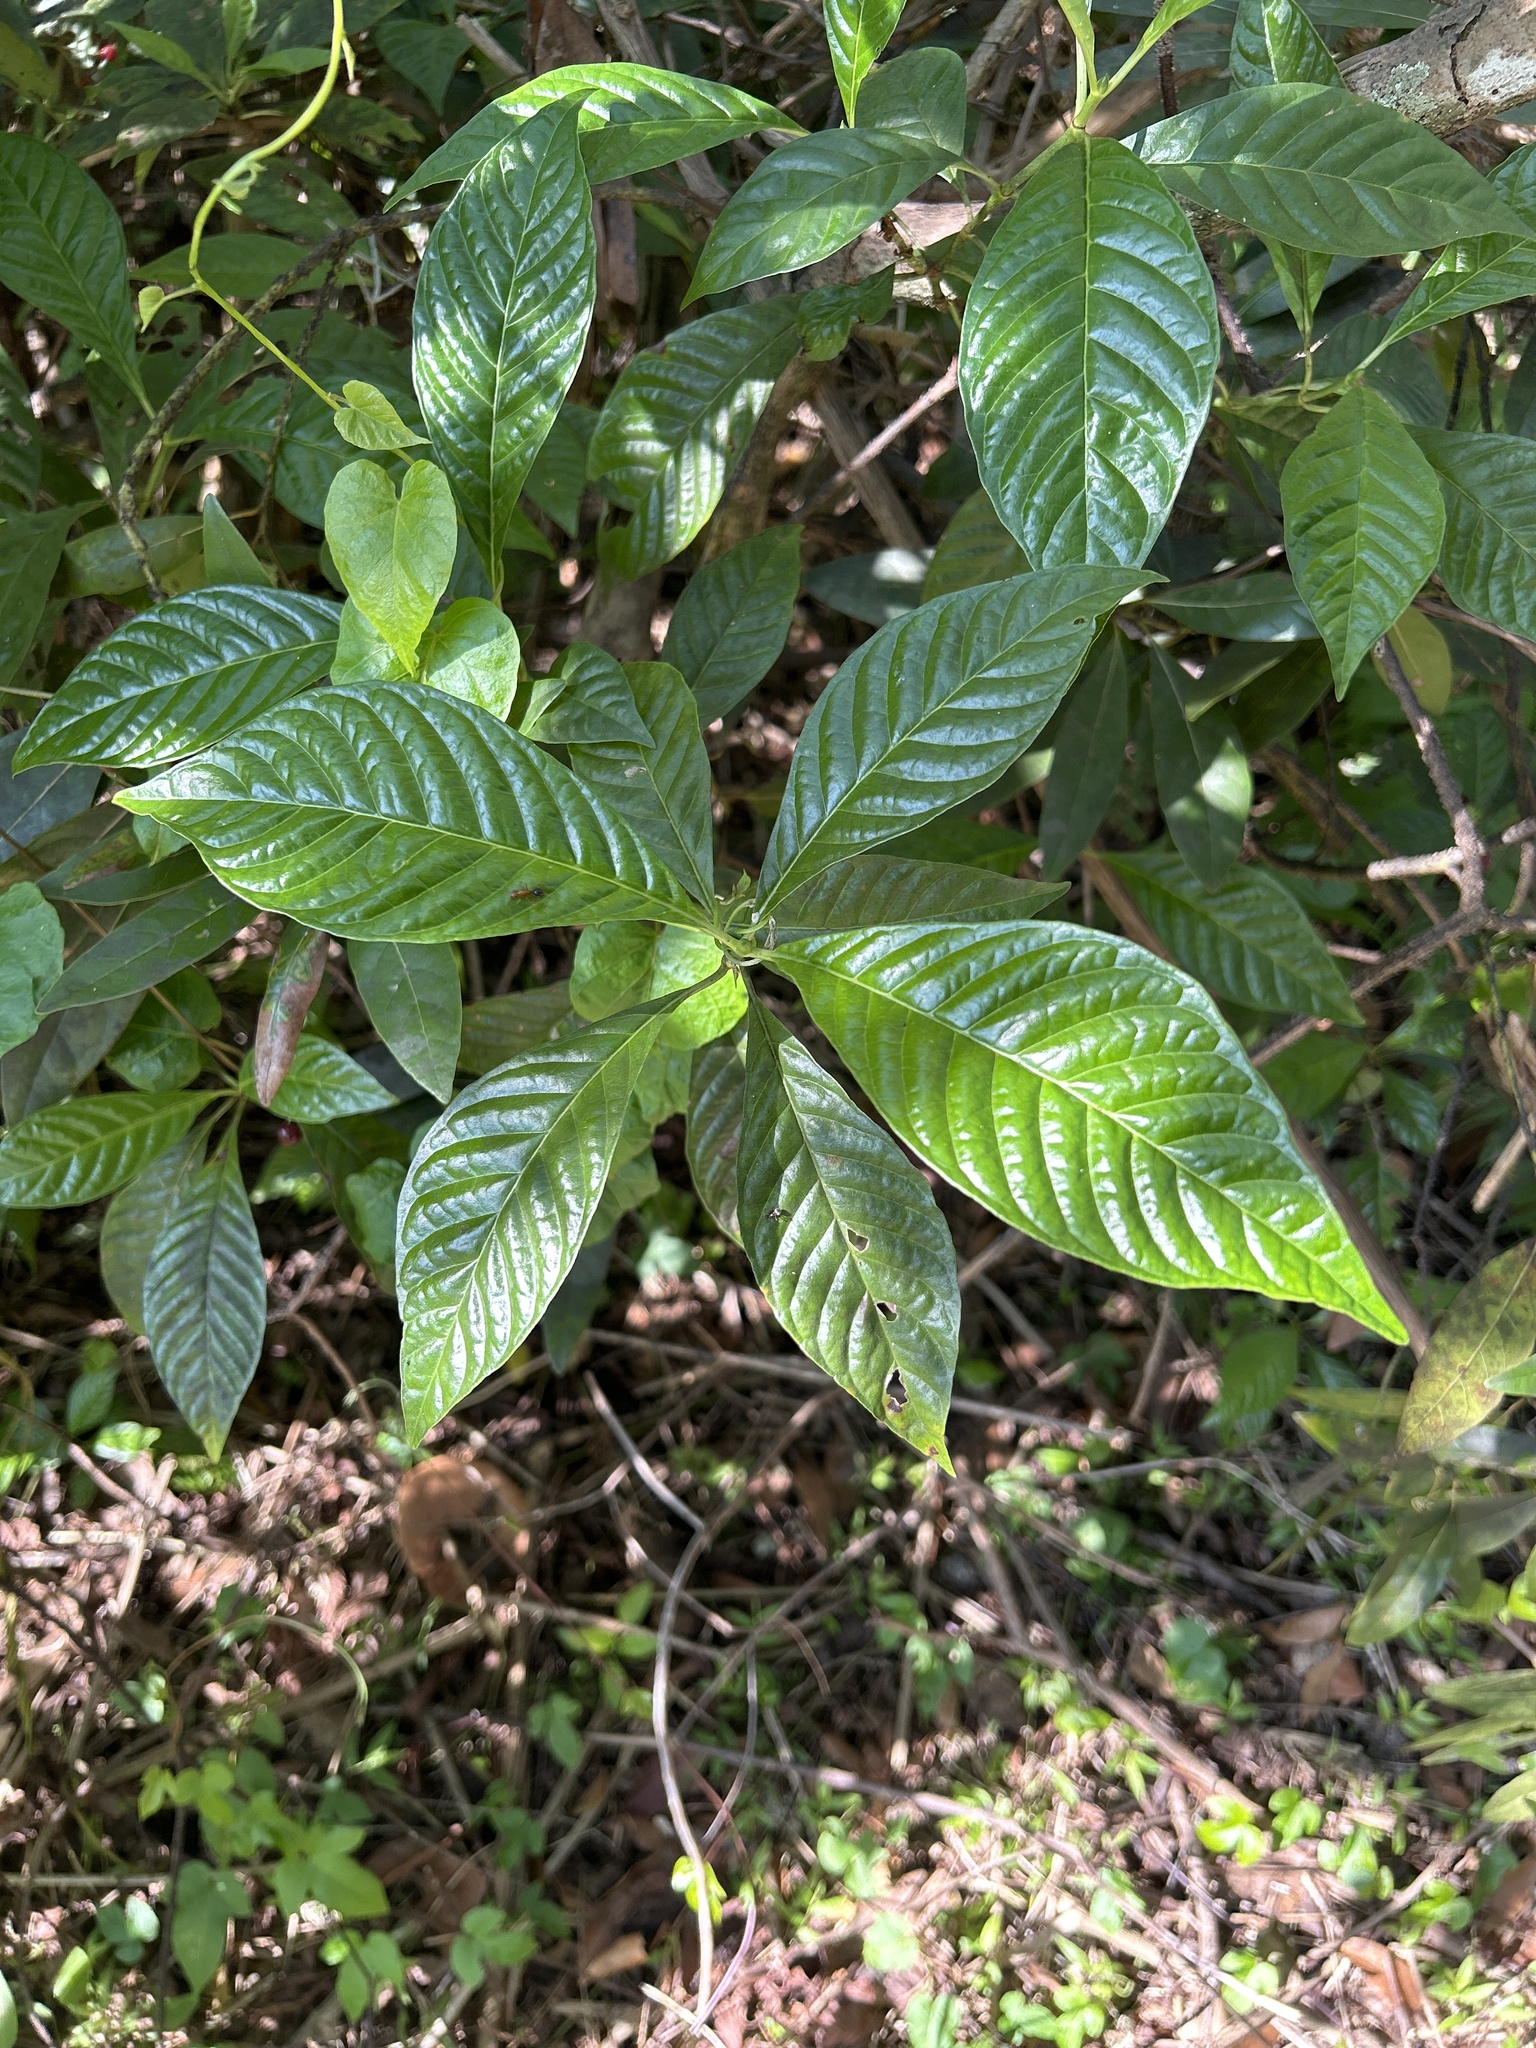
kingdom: Plantae
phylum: Tracheophyta
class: Magnoliopsida
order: Gentianales
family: Rubiaceae
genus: Psychotria
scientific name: Psychotria nervosa
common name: Bastard cankerberry
